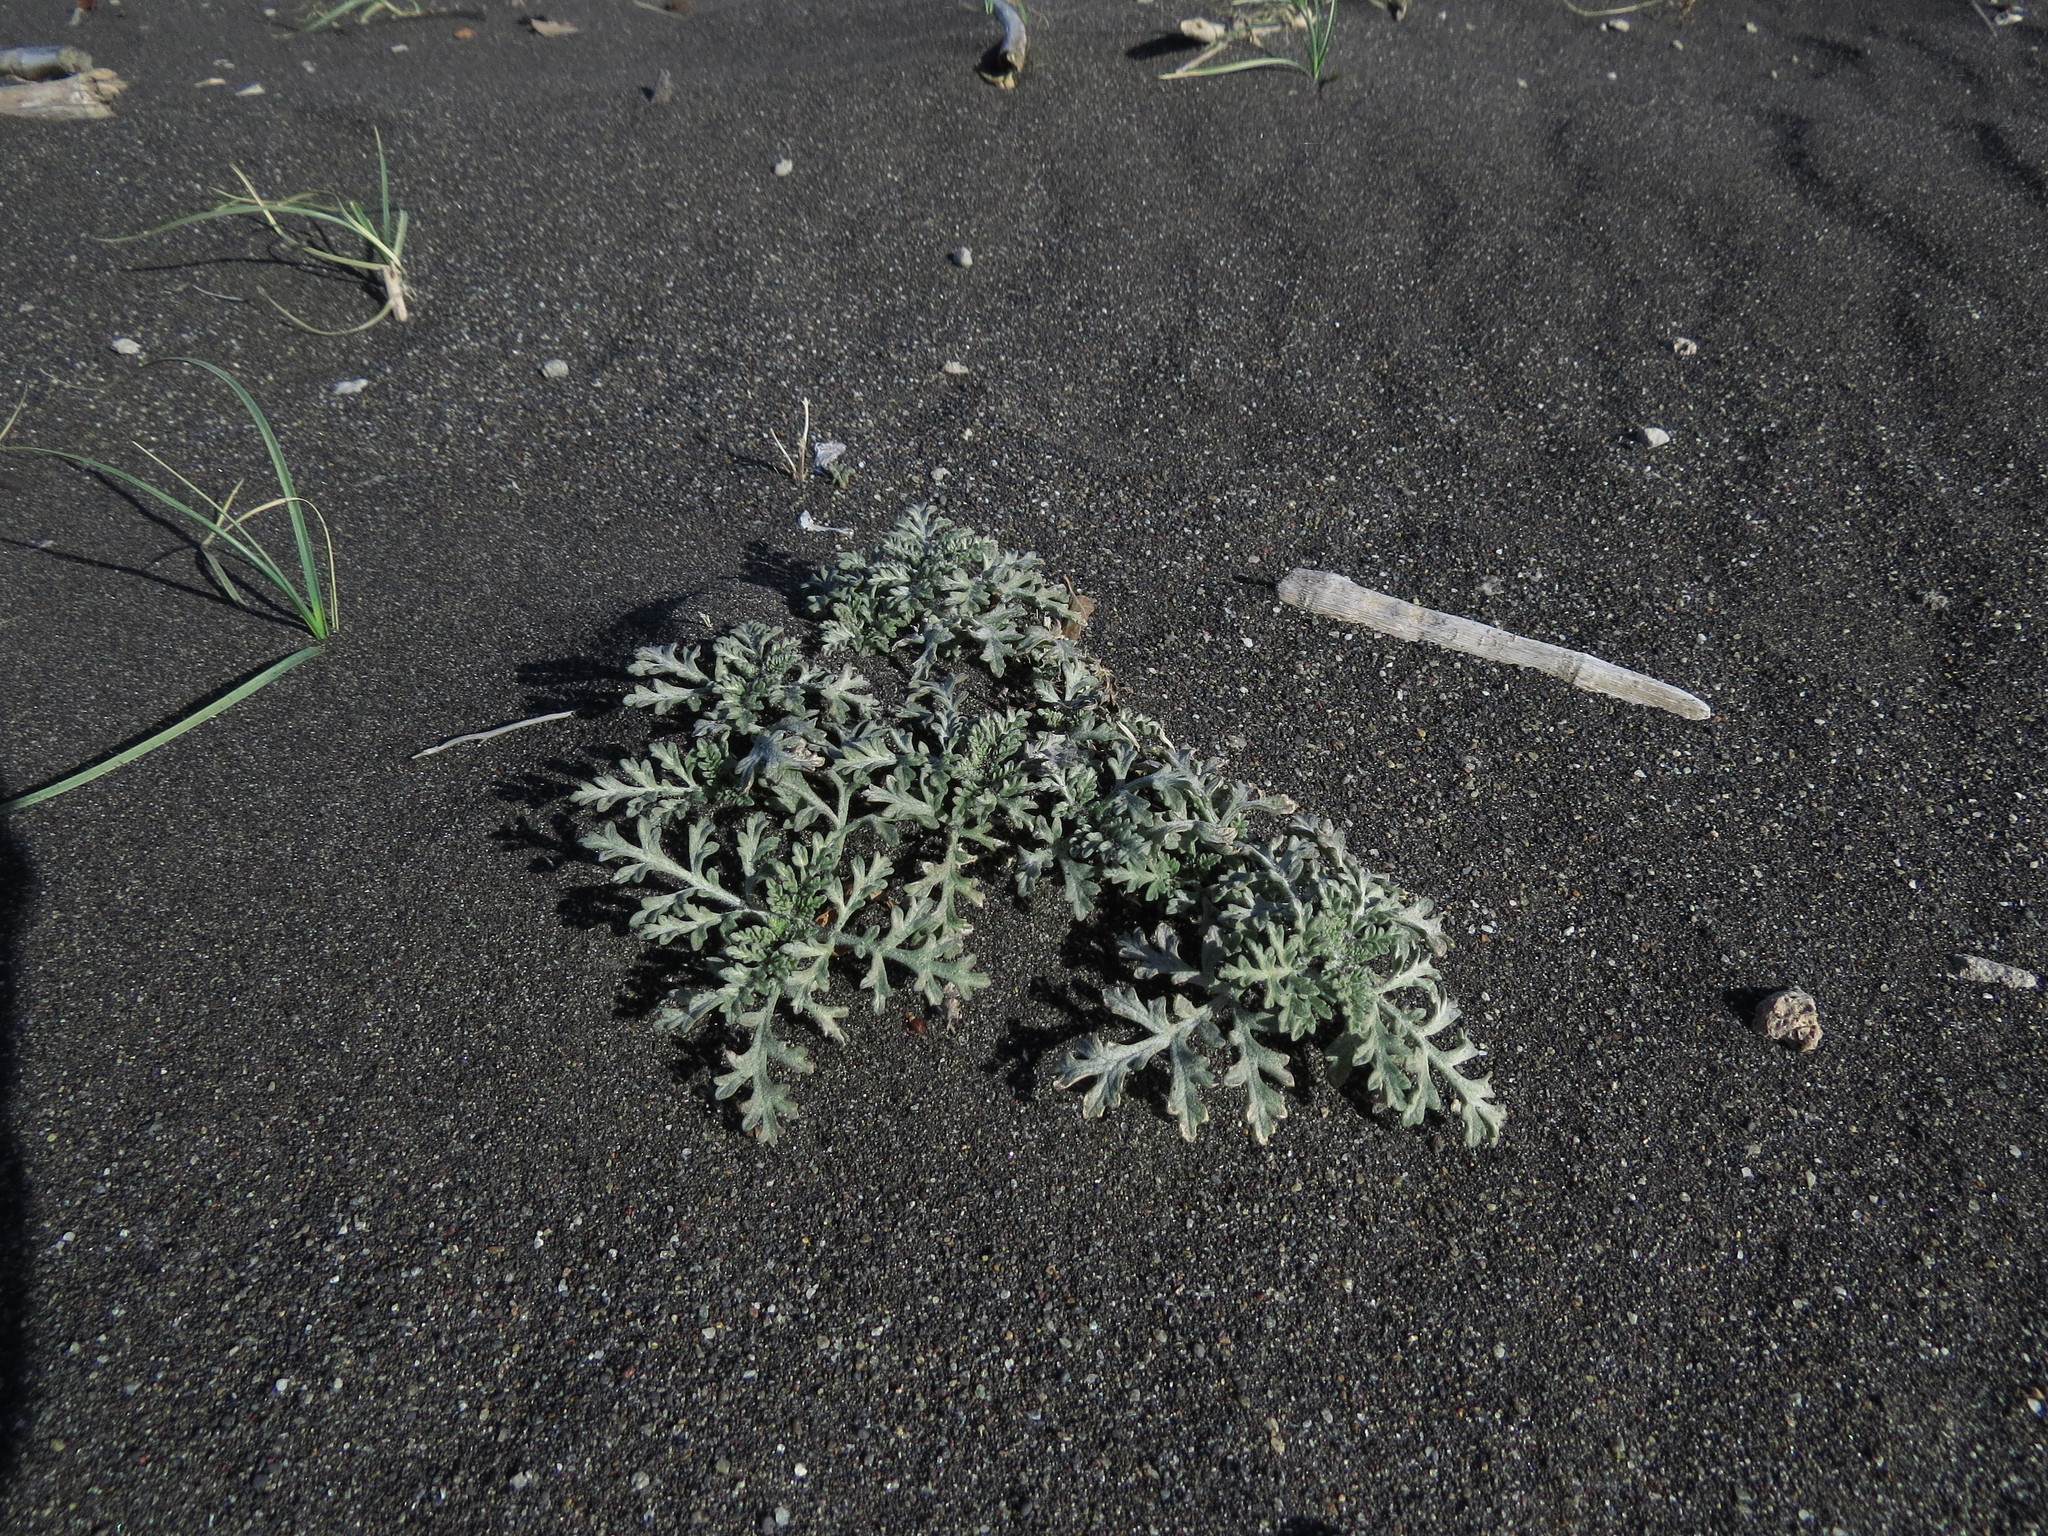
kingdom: Plantae
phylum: Tracheophyta
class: Magnoliopsida
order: Asterales
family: Asteraceae
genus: Ambrosia
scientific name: Ambrosia chamissonis
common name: Beachbur
